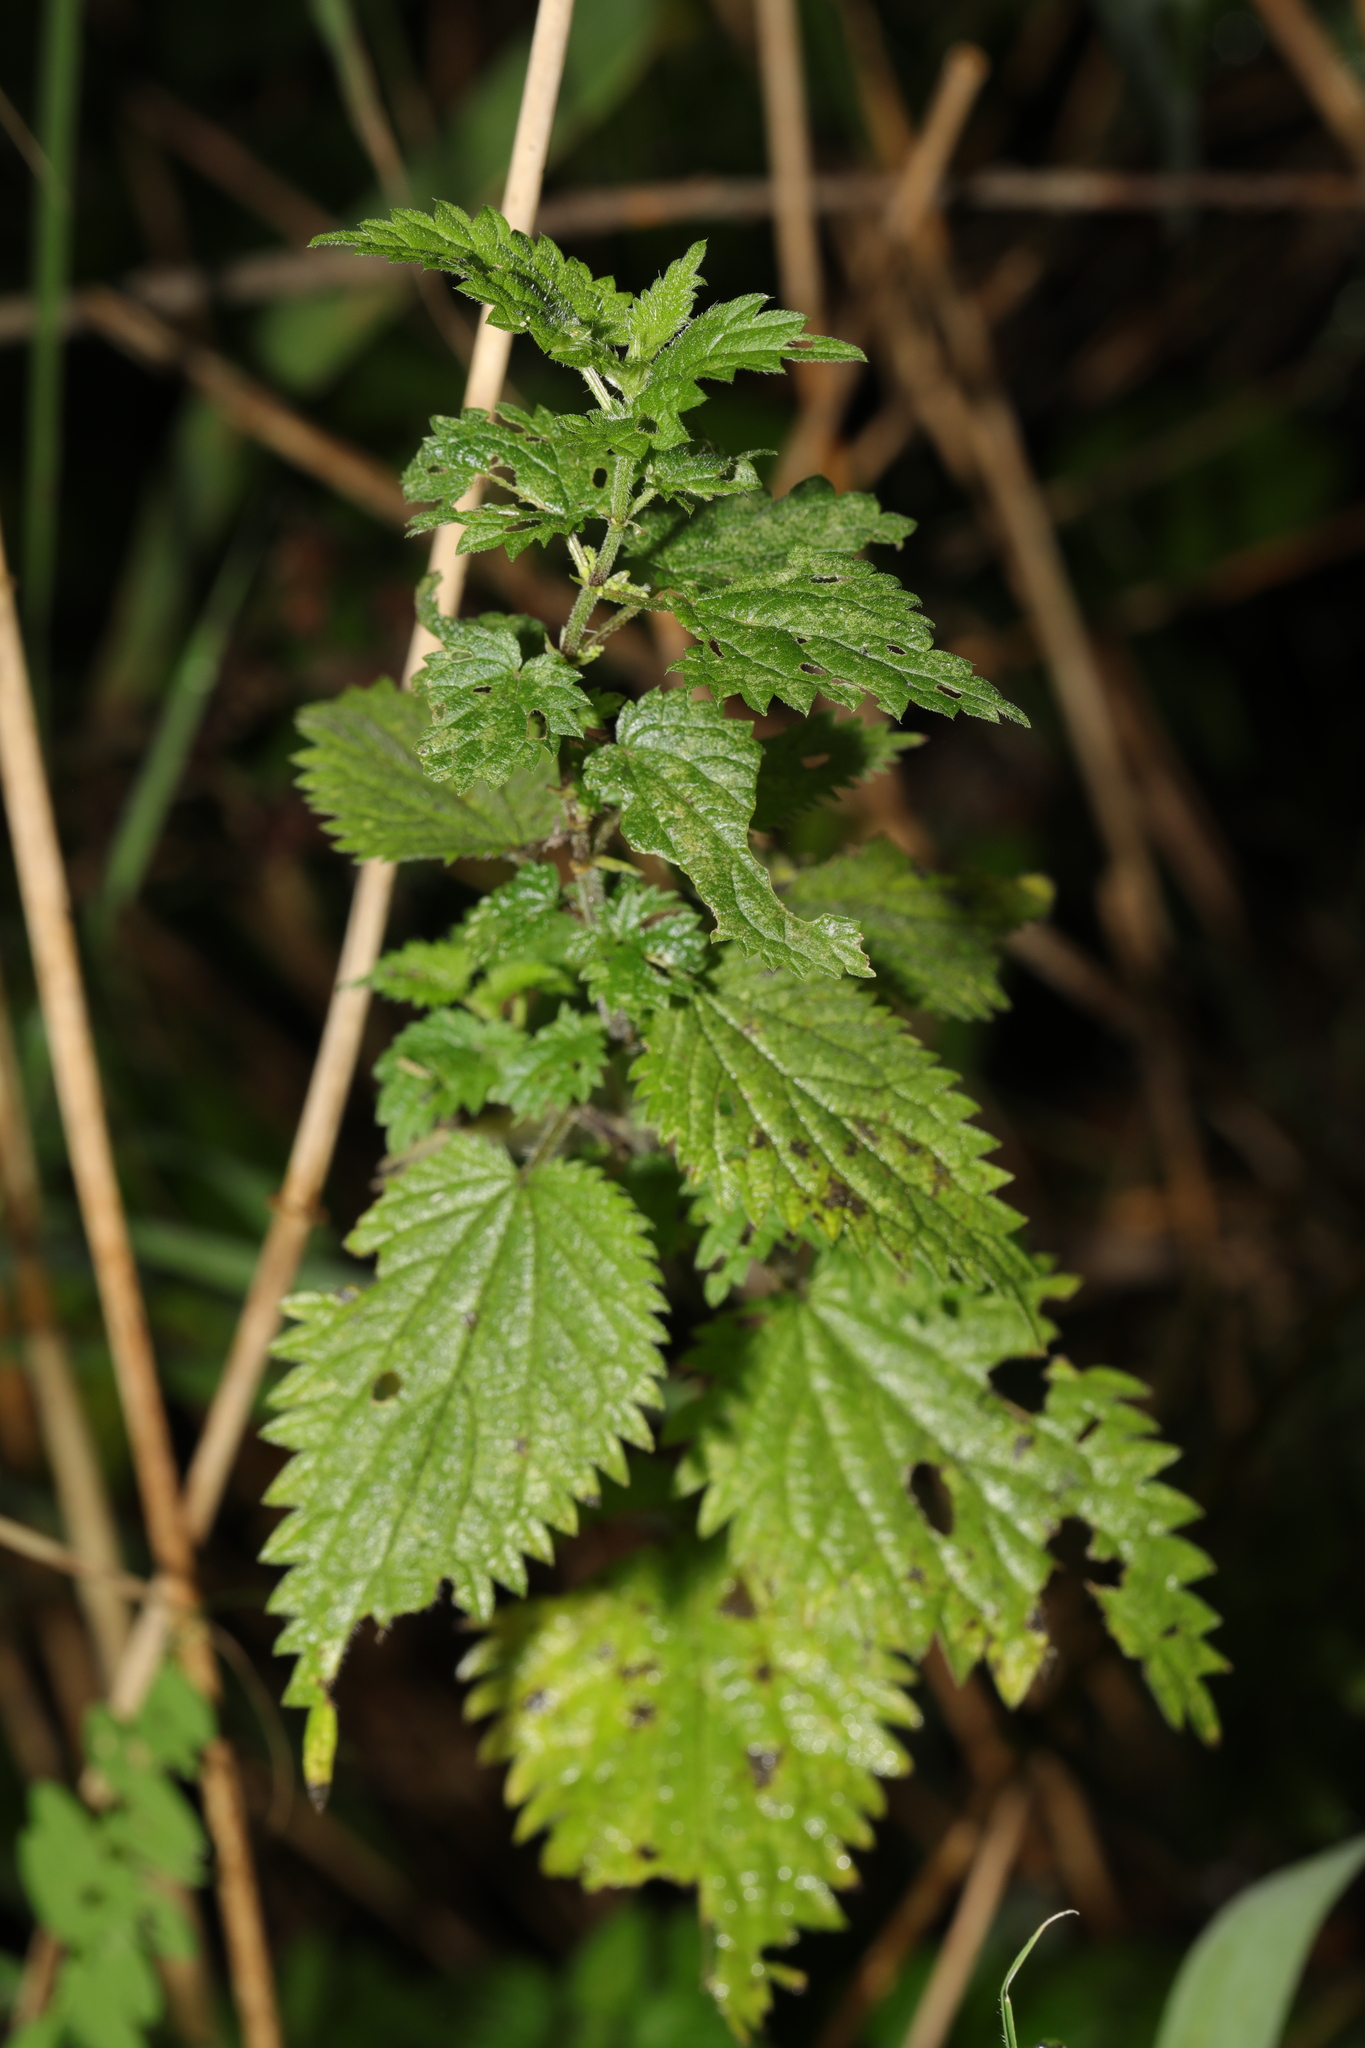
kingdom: Plantae
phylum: Tracheophyta
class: Magnoliopsida
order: Rosales
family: Urticaceae
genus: Urtica
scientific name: Urtica dioica
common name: Common nettle
